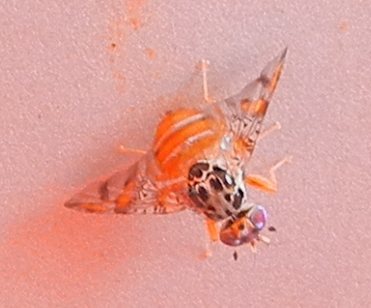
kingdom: Animalia
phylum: Arthropoda
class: Insecta
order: Diptera
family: Tephritidae
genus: Ceratitis
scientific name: Ceratitis capitata
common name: Mediterranean fruit fly
